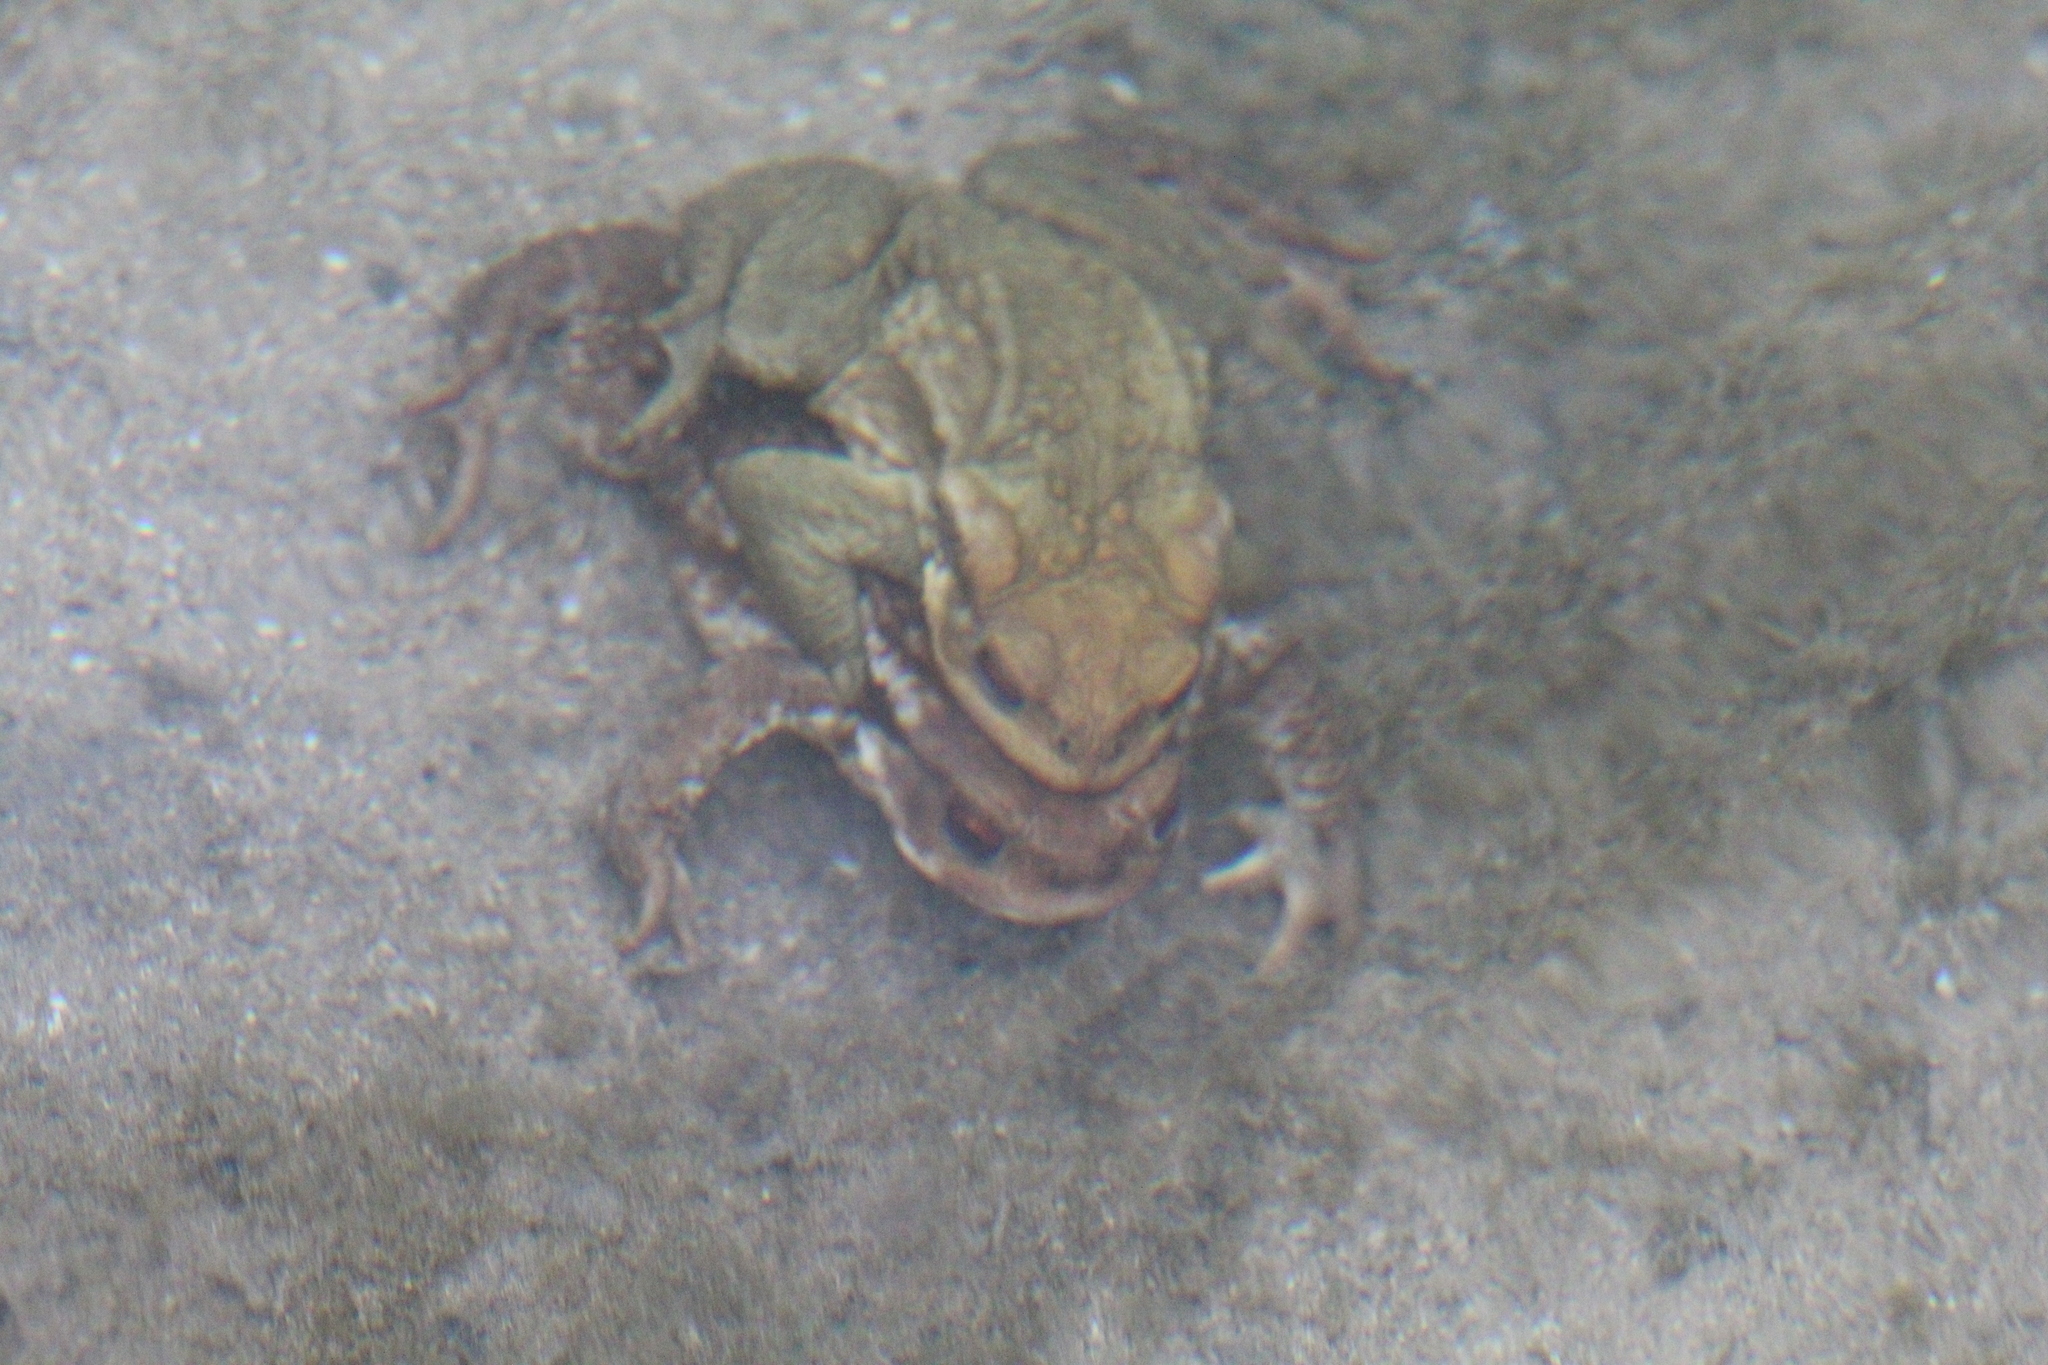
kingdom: Animalia
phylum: Chordata
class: Amphibia
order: Anura
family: Bufonidae
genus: Bufo
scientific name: Bufo spinosus
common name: Western common toad
